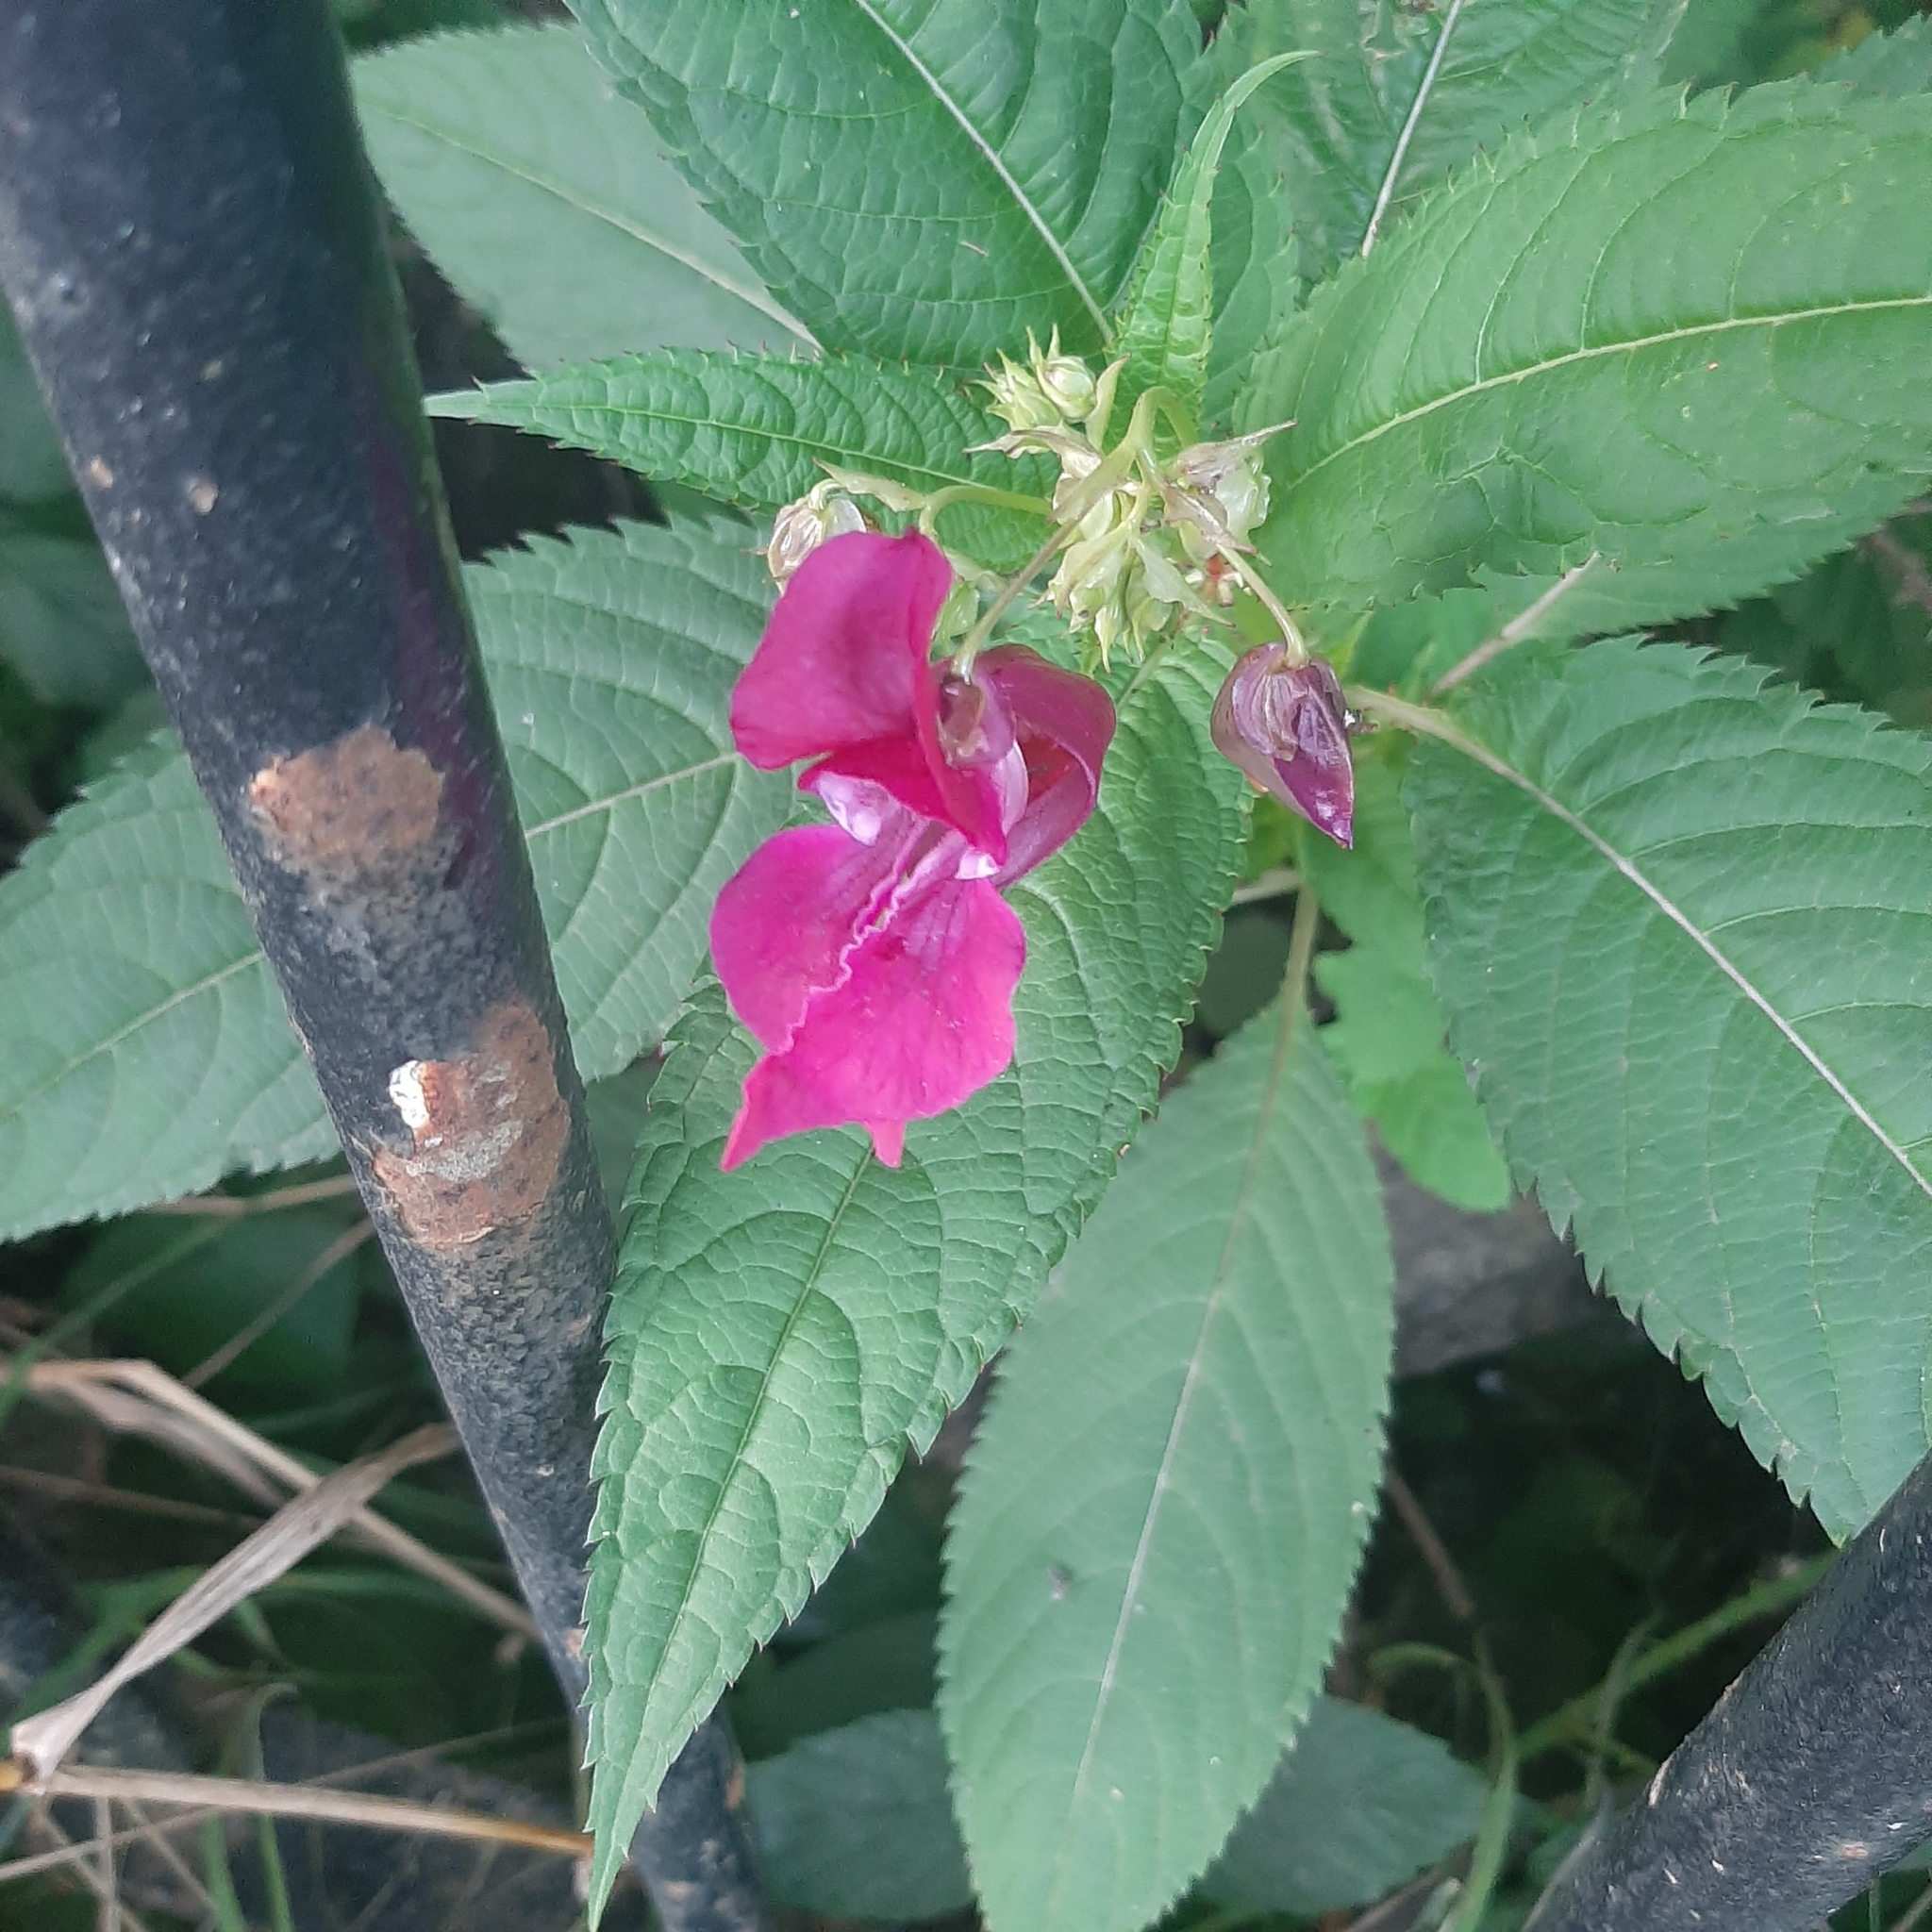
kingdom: Plantae
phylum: Tracheophyta
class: Magnoliopsida
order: Ericales
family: Balsaminaceae
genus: Impatiens
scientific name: Impatiens glandulifera
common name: Himalayan balsam
